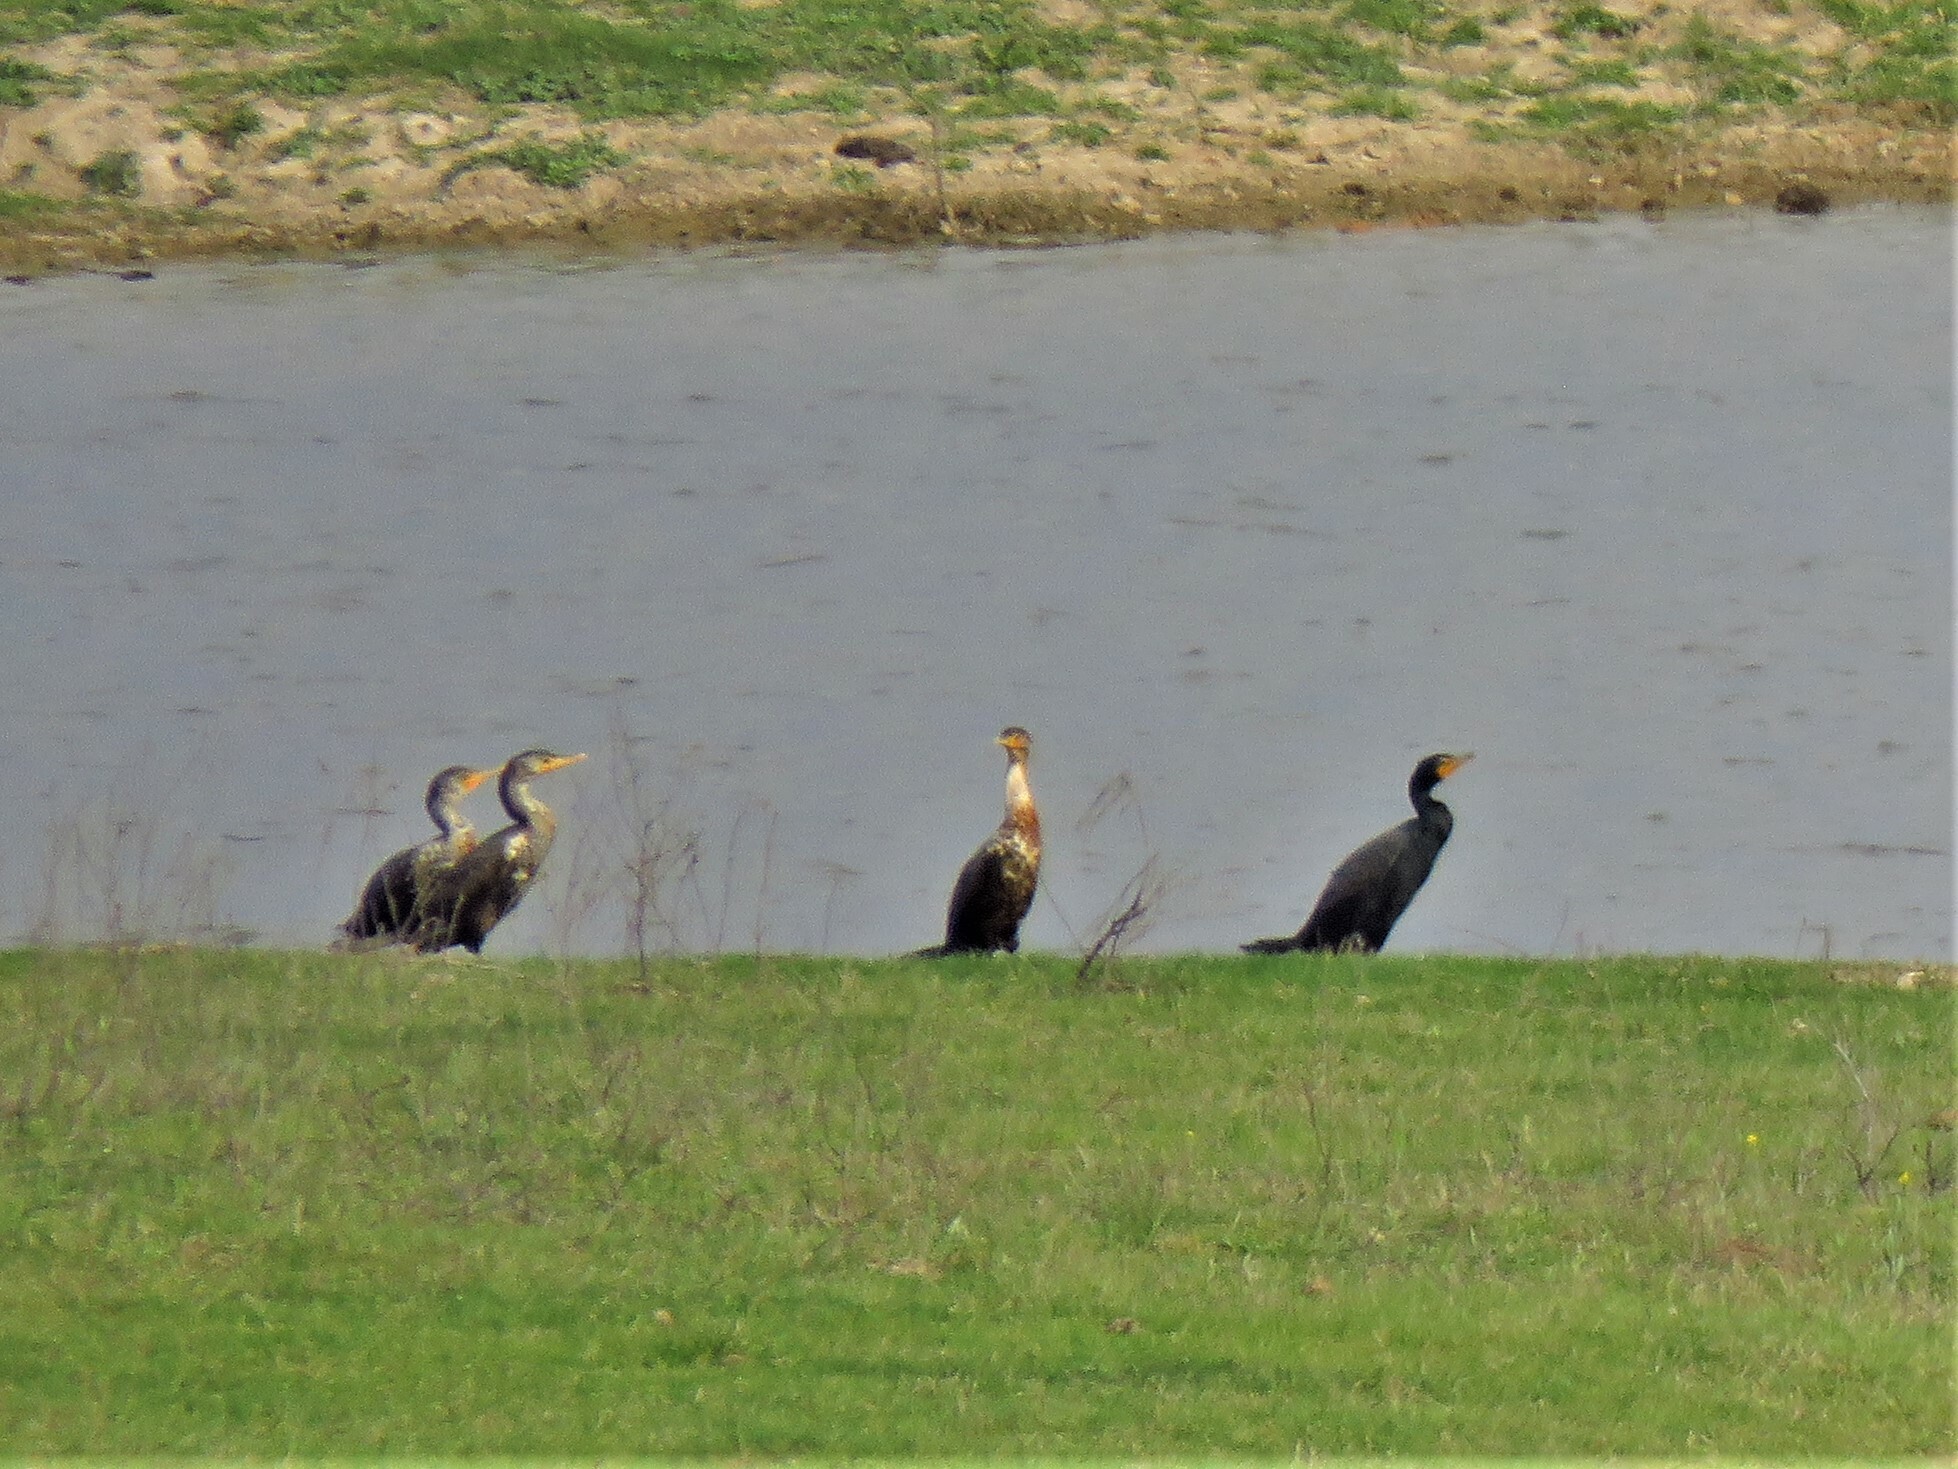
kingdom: Animalia
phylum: Chordata
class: Aves
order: Suliformes
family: Phalacrocoracidae
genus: Phalacrocorax
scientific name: Phalacrocorax auritus
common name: Double-crested cormorant
